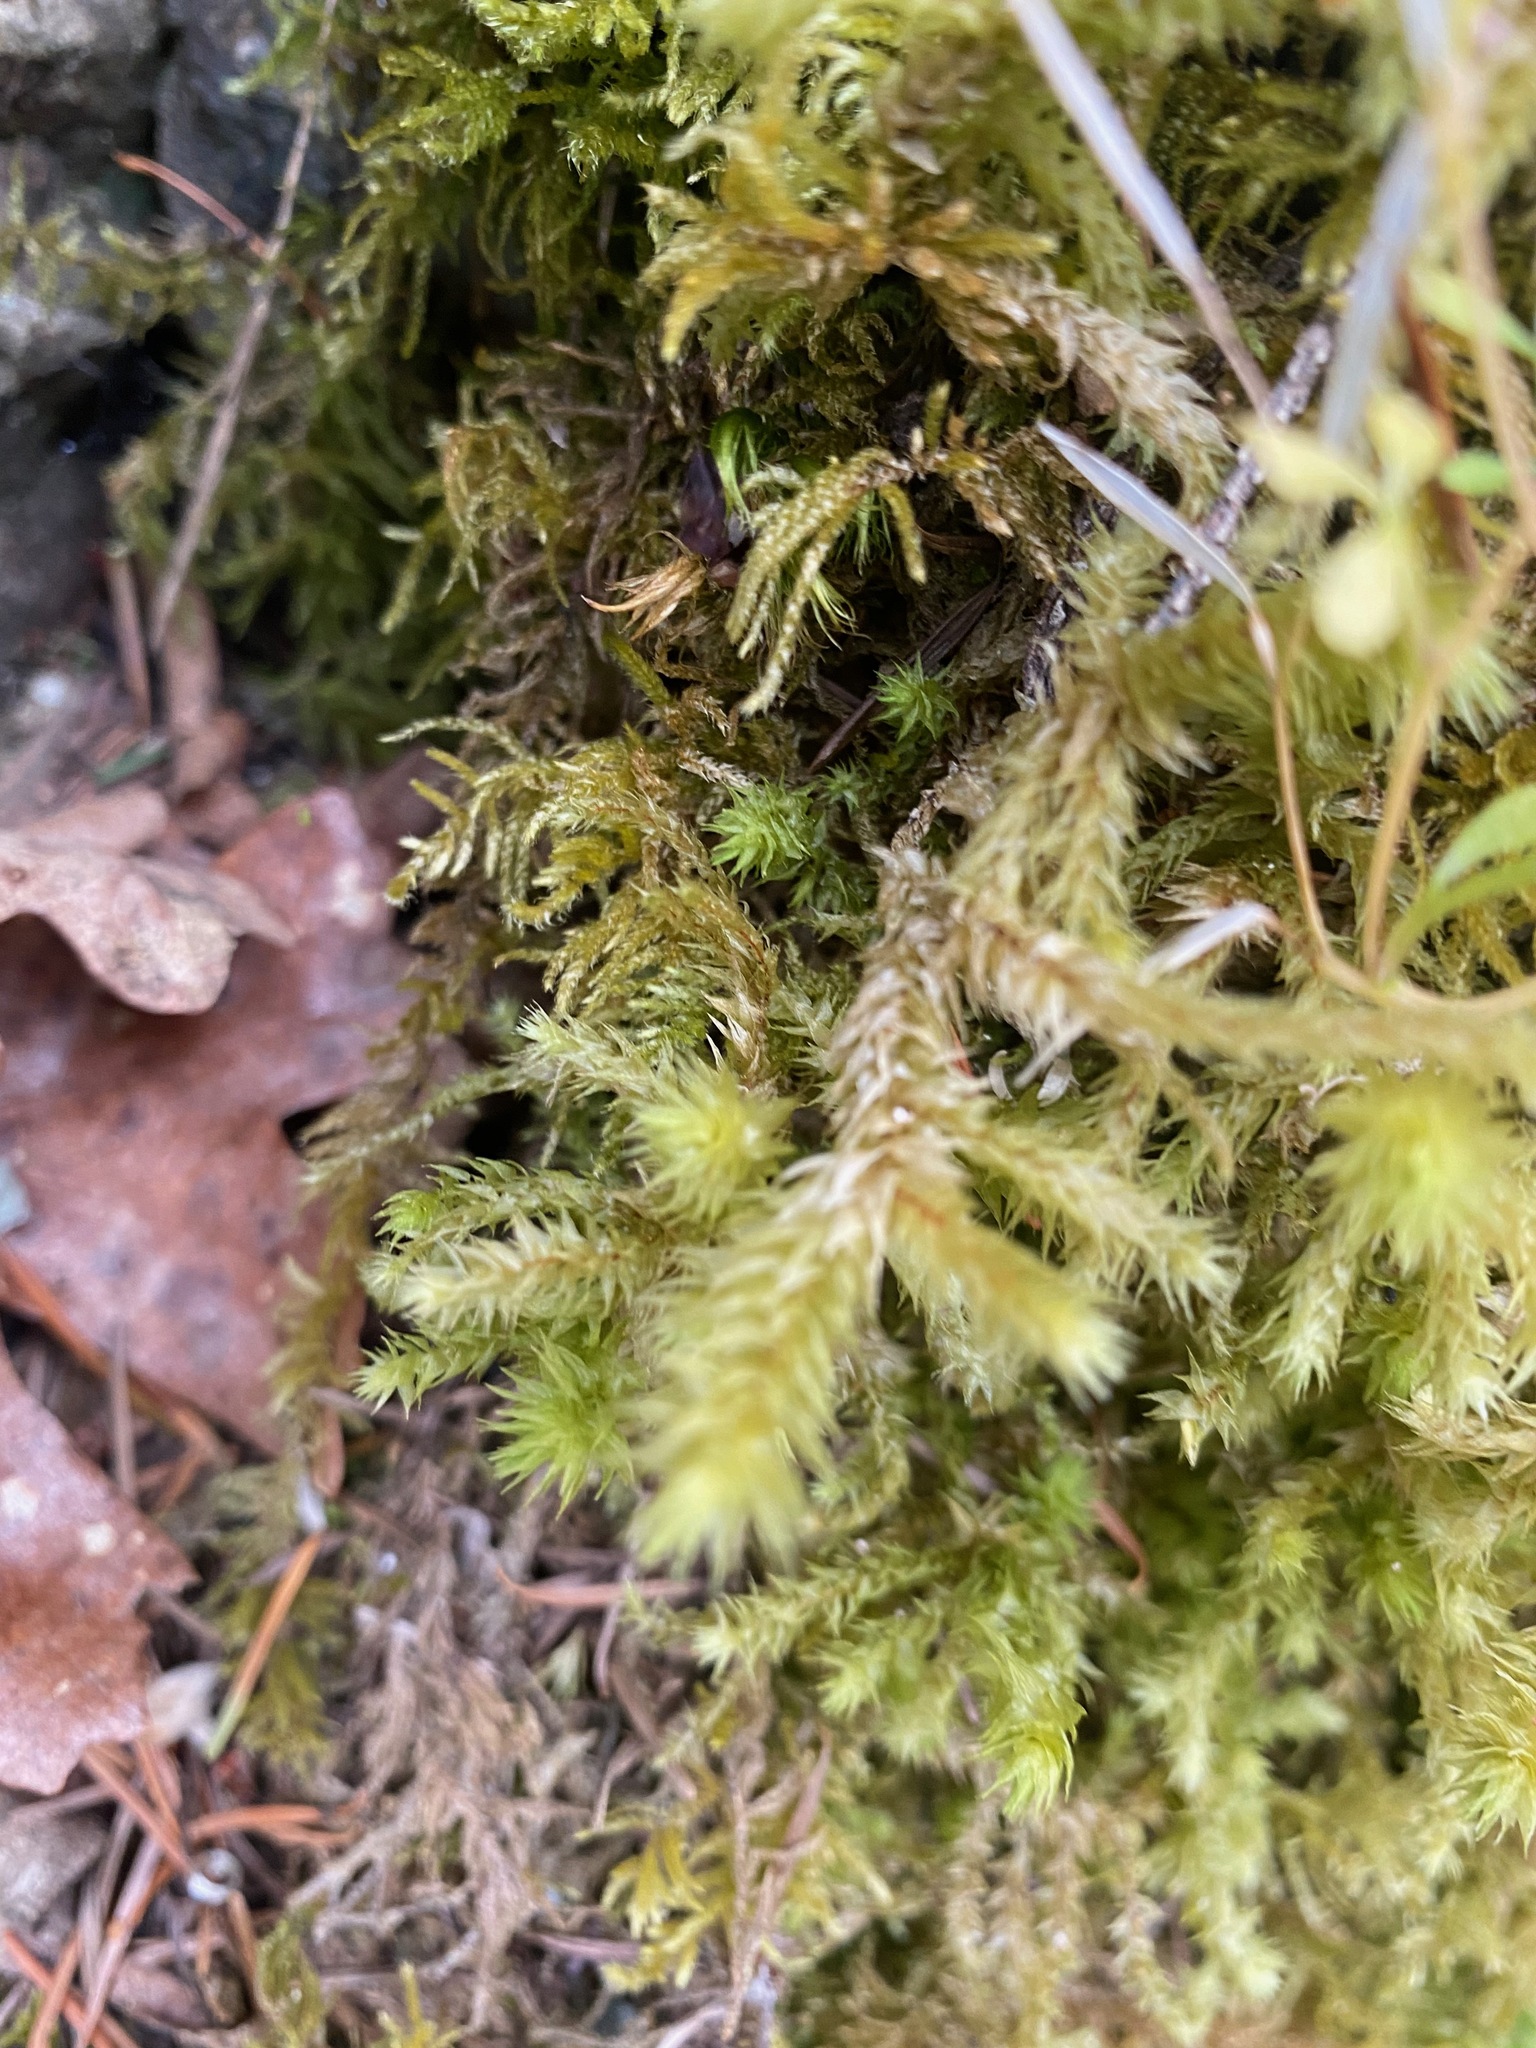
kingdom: Plantae
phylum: Bryophyta
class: Bryopsida
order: Hypnales
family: Hylocomiaceae
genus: Hylocomiadelphus
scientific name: Hylocomiadelphus triquetrus
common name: Rough goose neck moss
